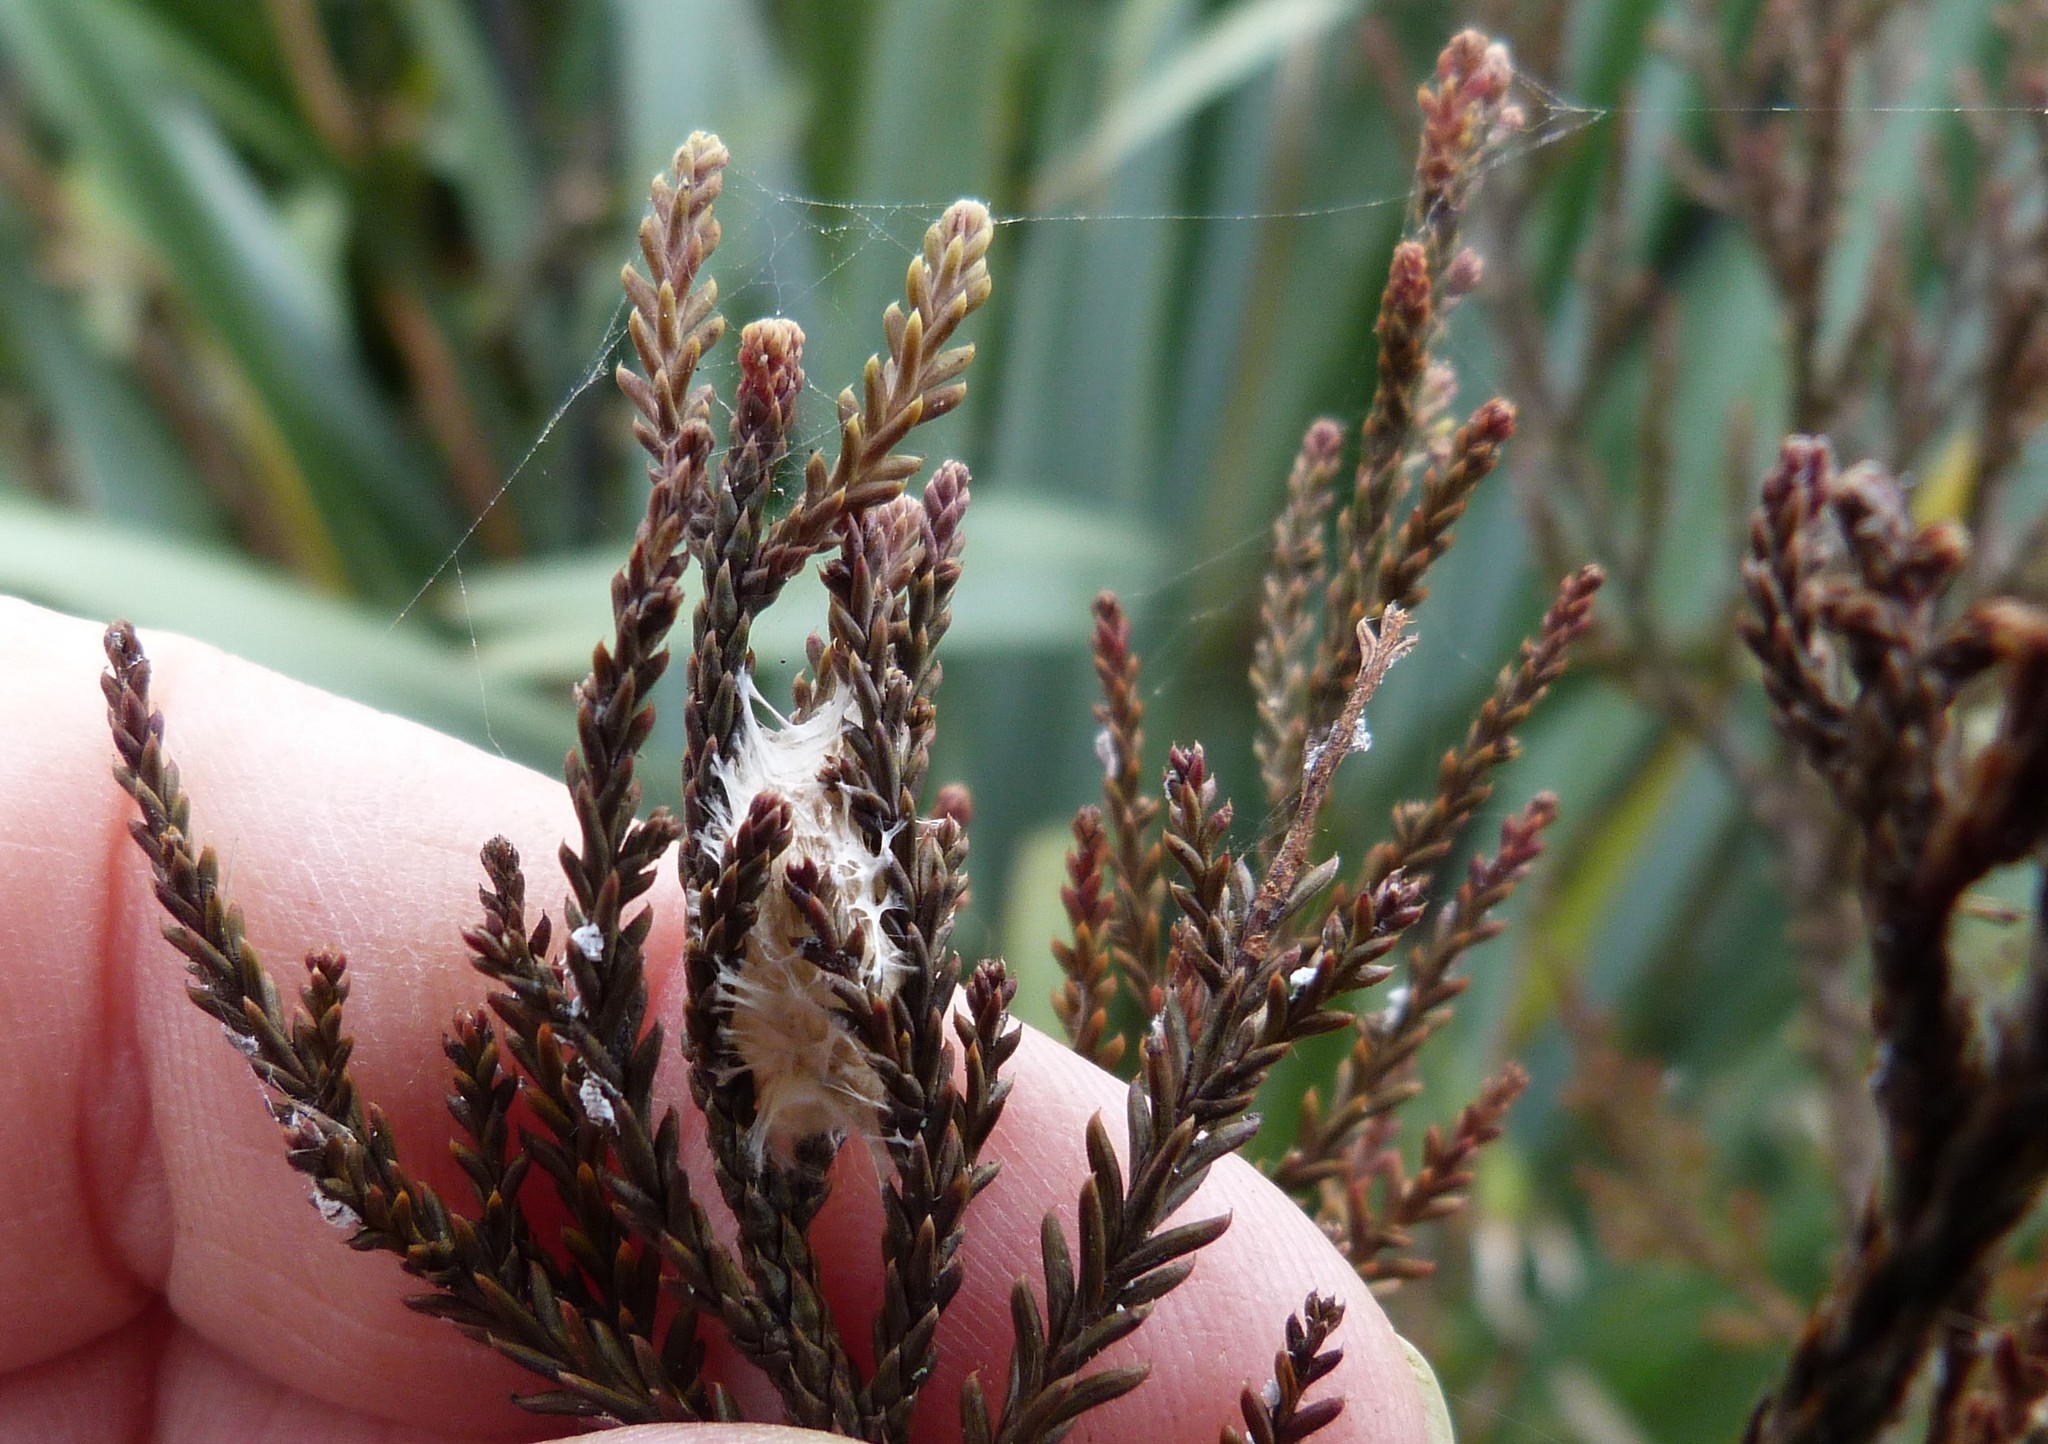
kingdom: Plantae
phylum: Tracheophyta
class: Pinopsida
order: Pinales
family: Podocarpaceae
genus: Dacrycarpus
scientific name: Dacrycarpus dacrydioides
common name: White pine
